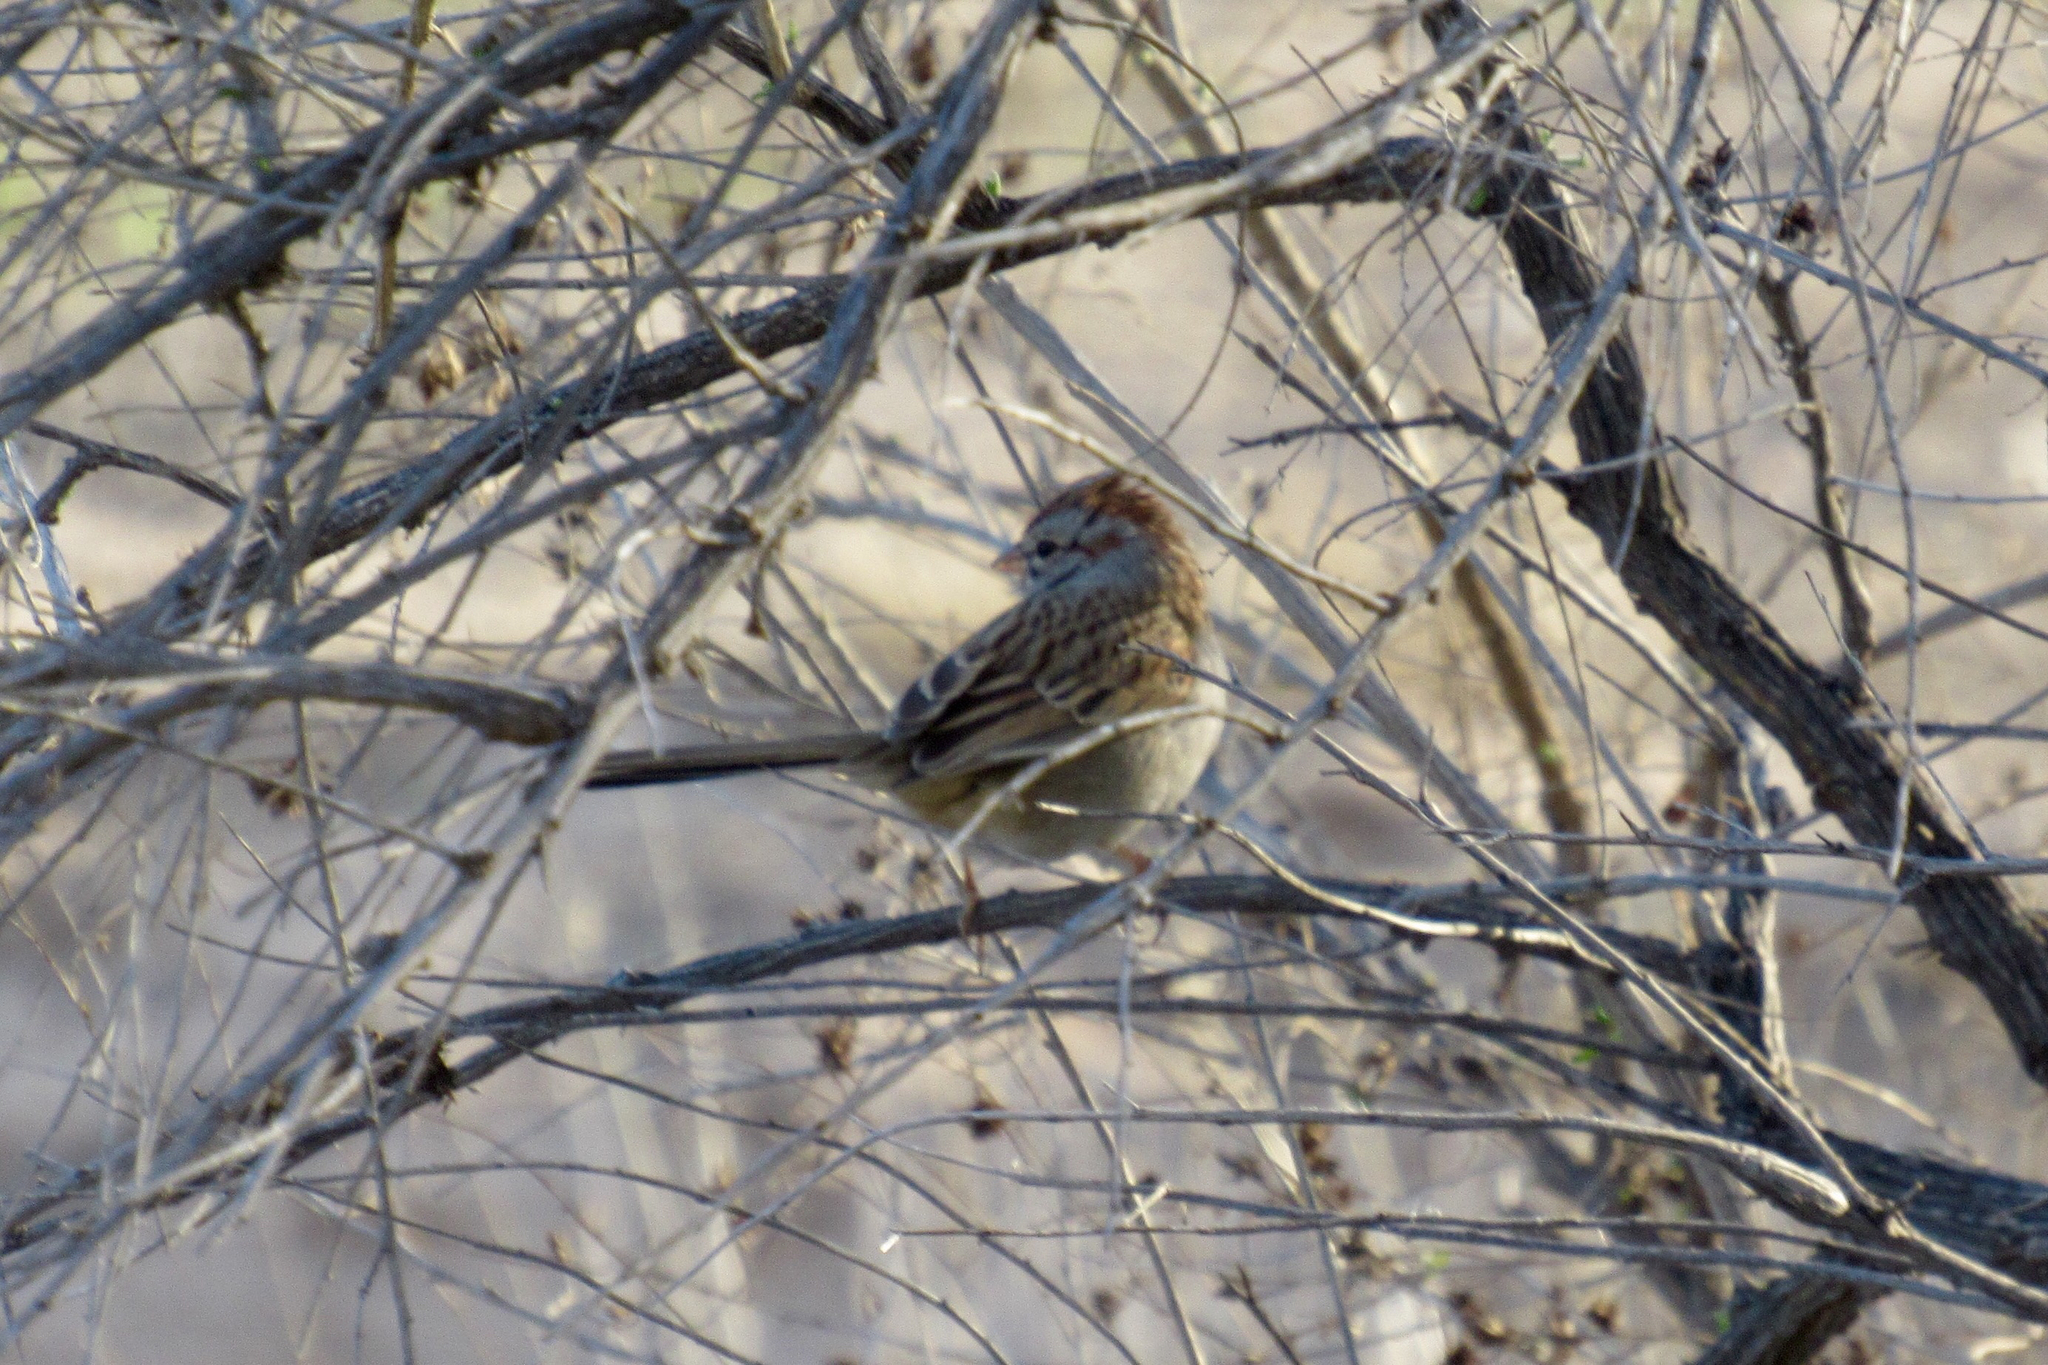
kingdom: Animalia
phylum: Chordata
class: Aves
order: Passeriformes
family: Passerellidae
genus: Peucaea
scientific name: Peucaea carpalis
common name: Rufous-winged sparrow
